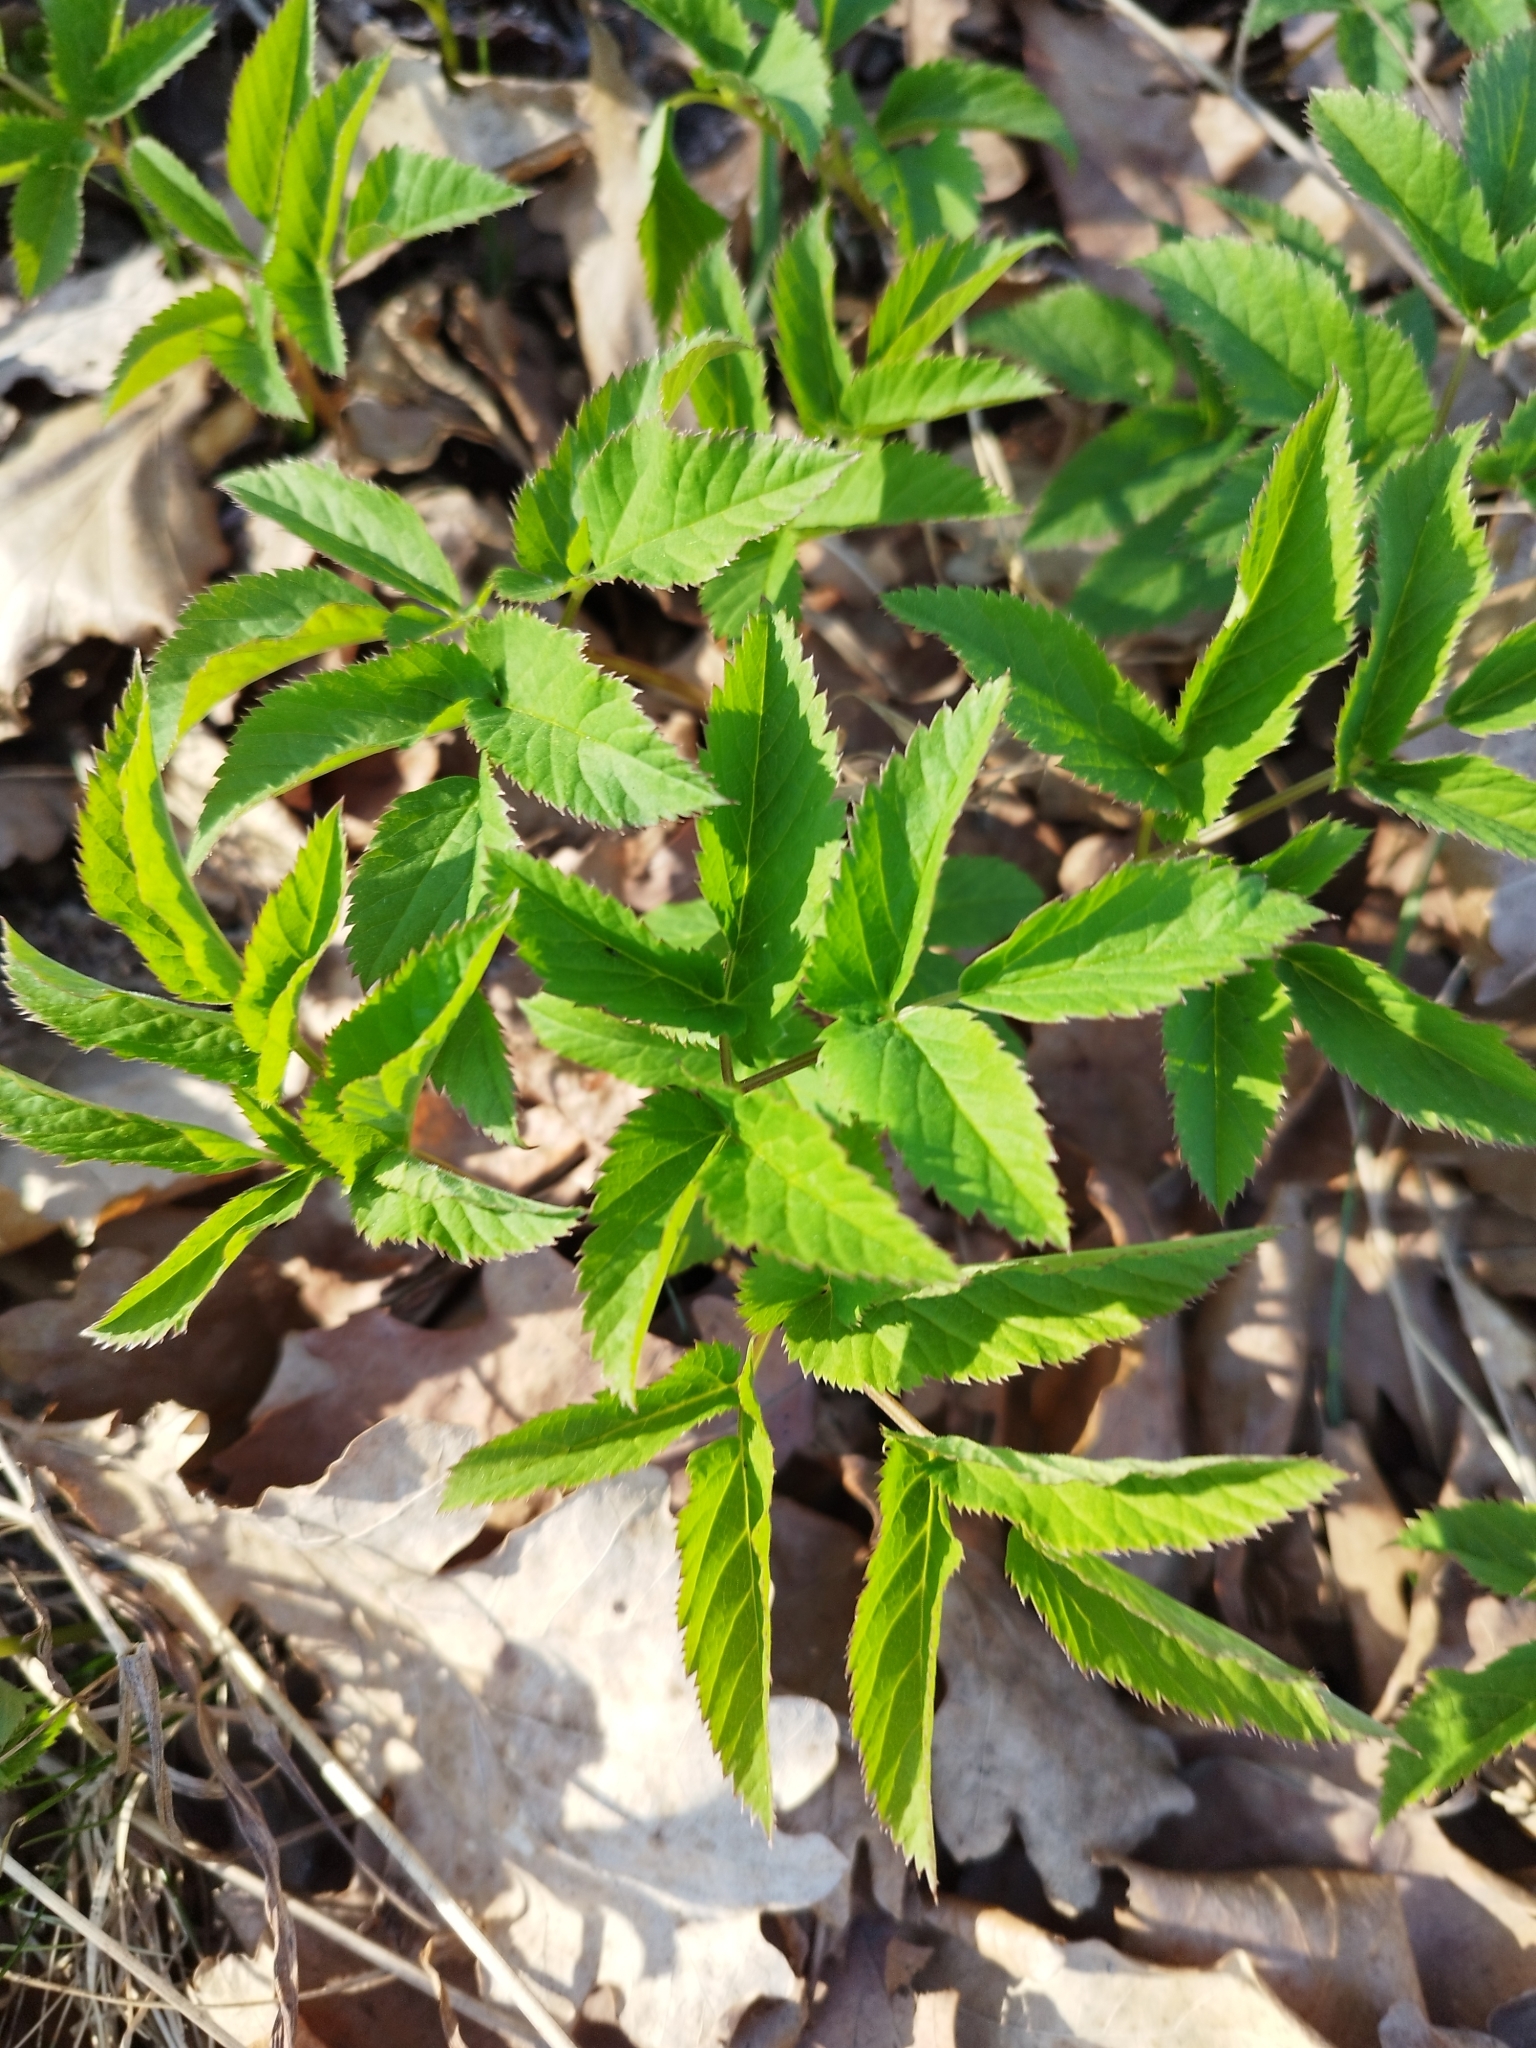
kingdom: Plantae
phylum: Tracheophyta
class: Magnoliopsida
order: Apiales
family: Apiaceae
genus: Aegopodium
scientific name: Aegopodium podagraria
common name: Ground-elder
